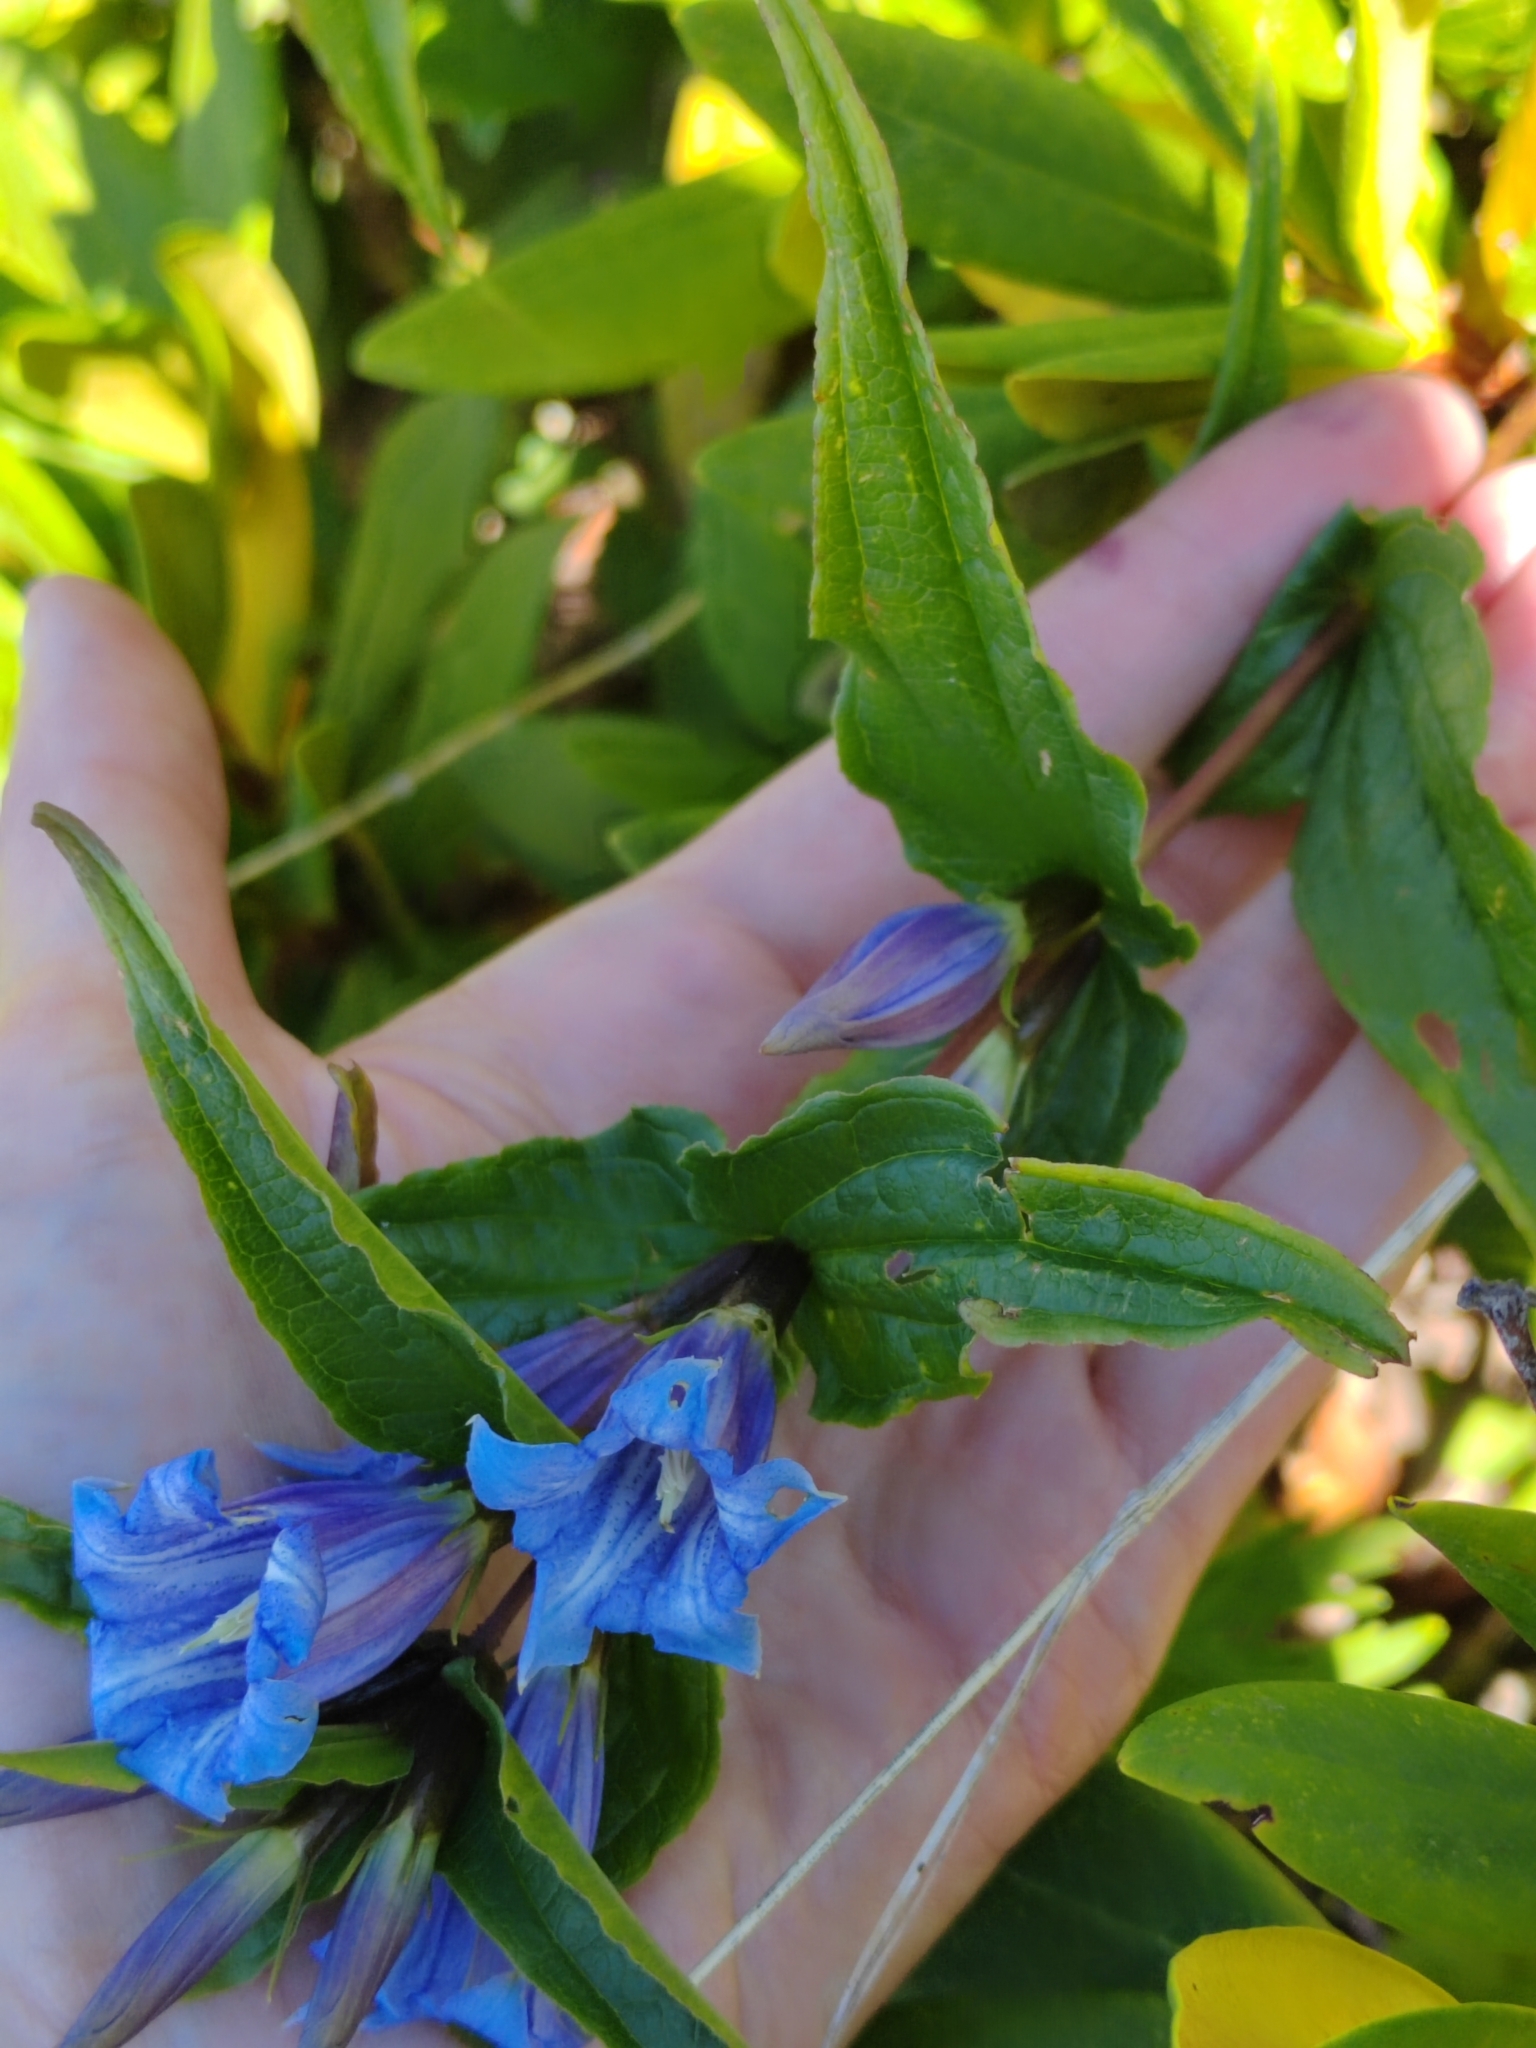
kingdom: Plantae
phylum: Tracheophyta
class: Magnoliopsida
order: Gentianales
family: Gentianaceae
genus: Gentiana
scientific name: Gentiana asclepiadea
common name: Willow gentian
